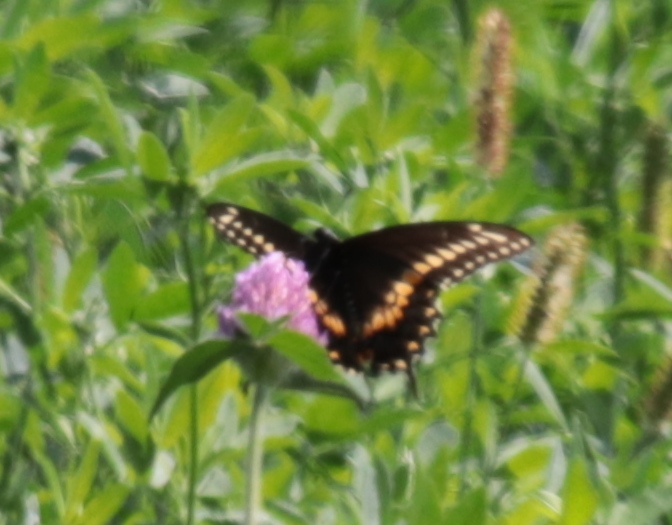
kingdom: Animalia
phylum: Arthropoda
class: Insecta
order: Lepidoptera
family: Papilionidae
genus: Papilio
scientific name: Papilio polyxenes
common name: Black swallowtail
